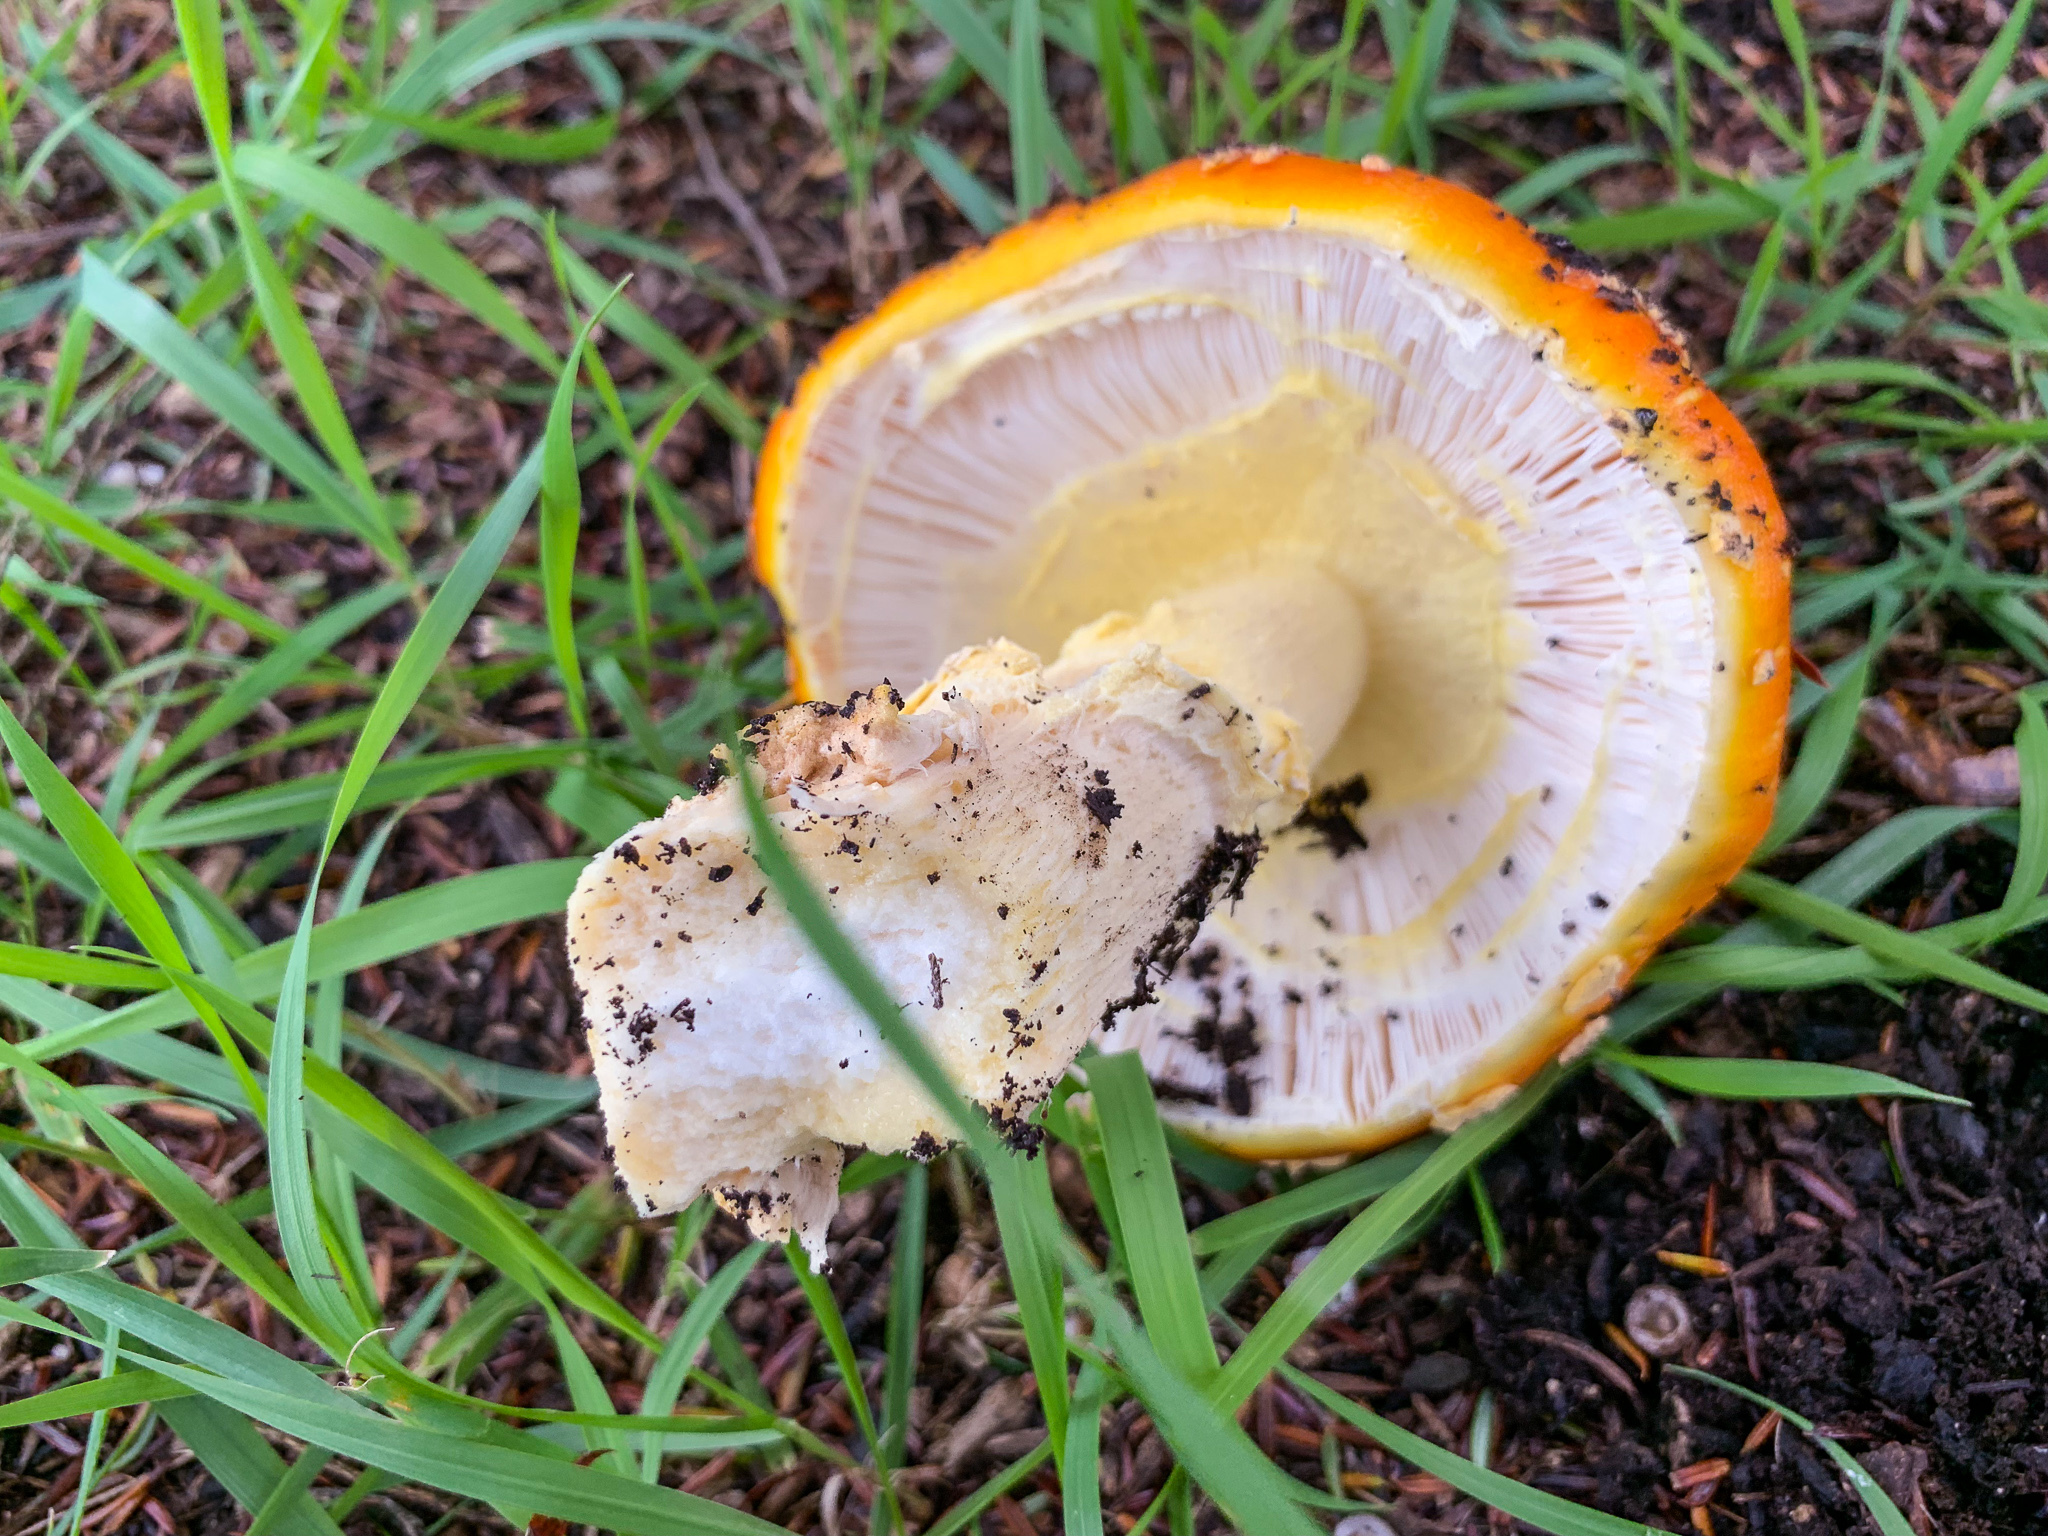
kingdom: Fungi
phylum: Basidiomycota
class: Agaricomycetes
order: Agaricales
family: Amanitaceae
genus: Amanita
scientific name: Amanita muscaria
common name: Fly agaric
